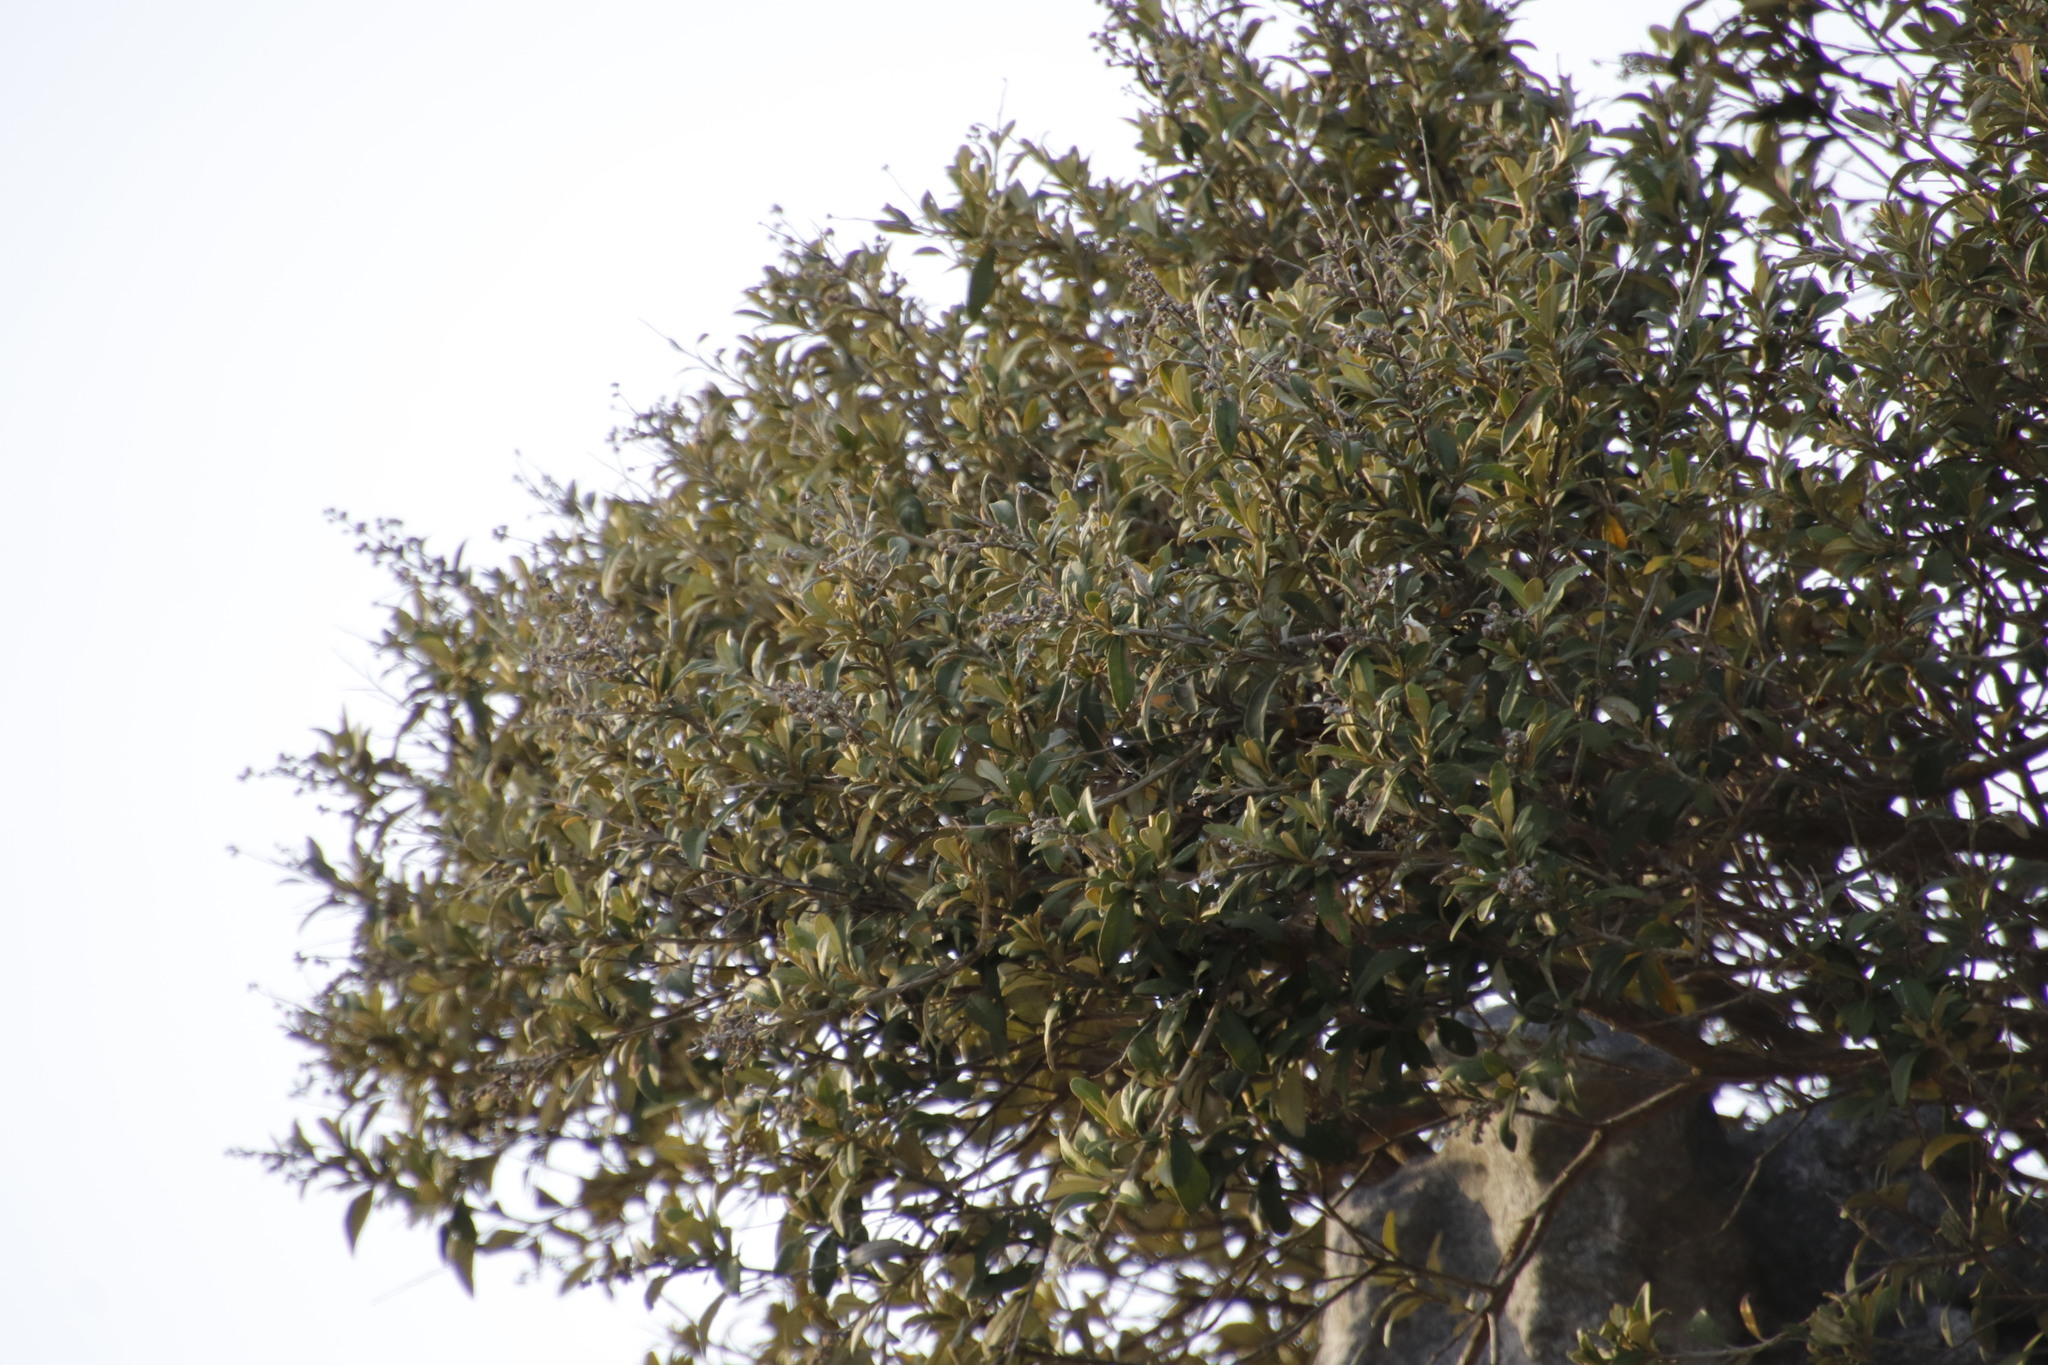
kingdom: Plantae
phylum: Tracheophyta
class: Magnoliopsida
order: Asterales
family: Asteraceae
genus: Tarchonanthus
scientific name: Tarchonanthus littoralis
